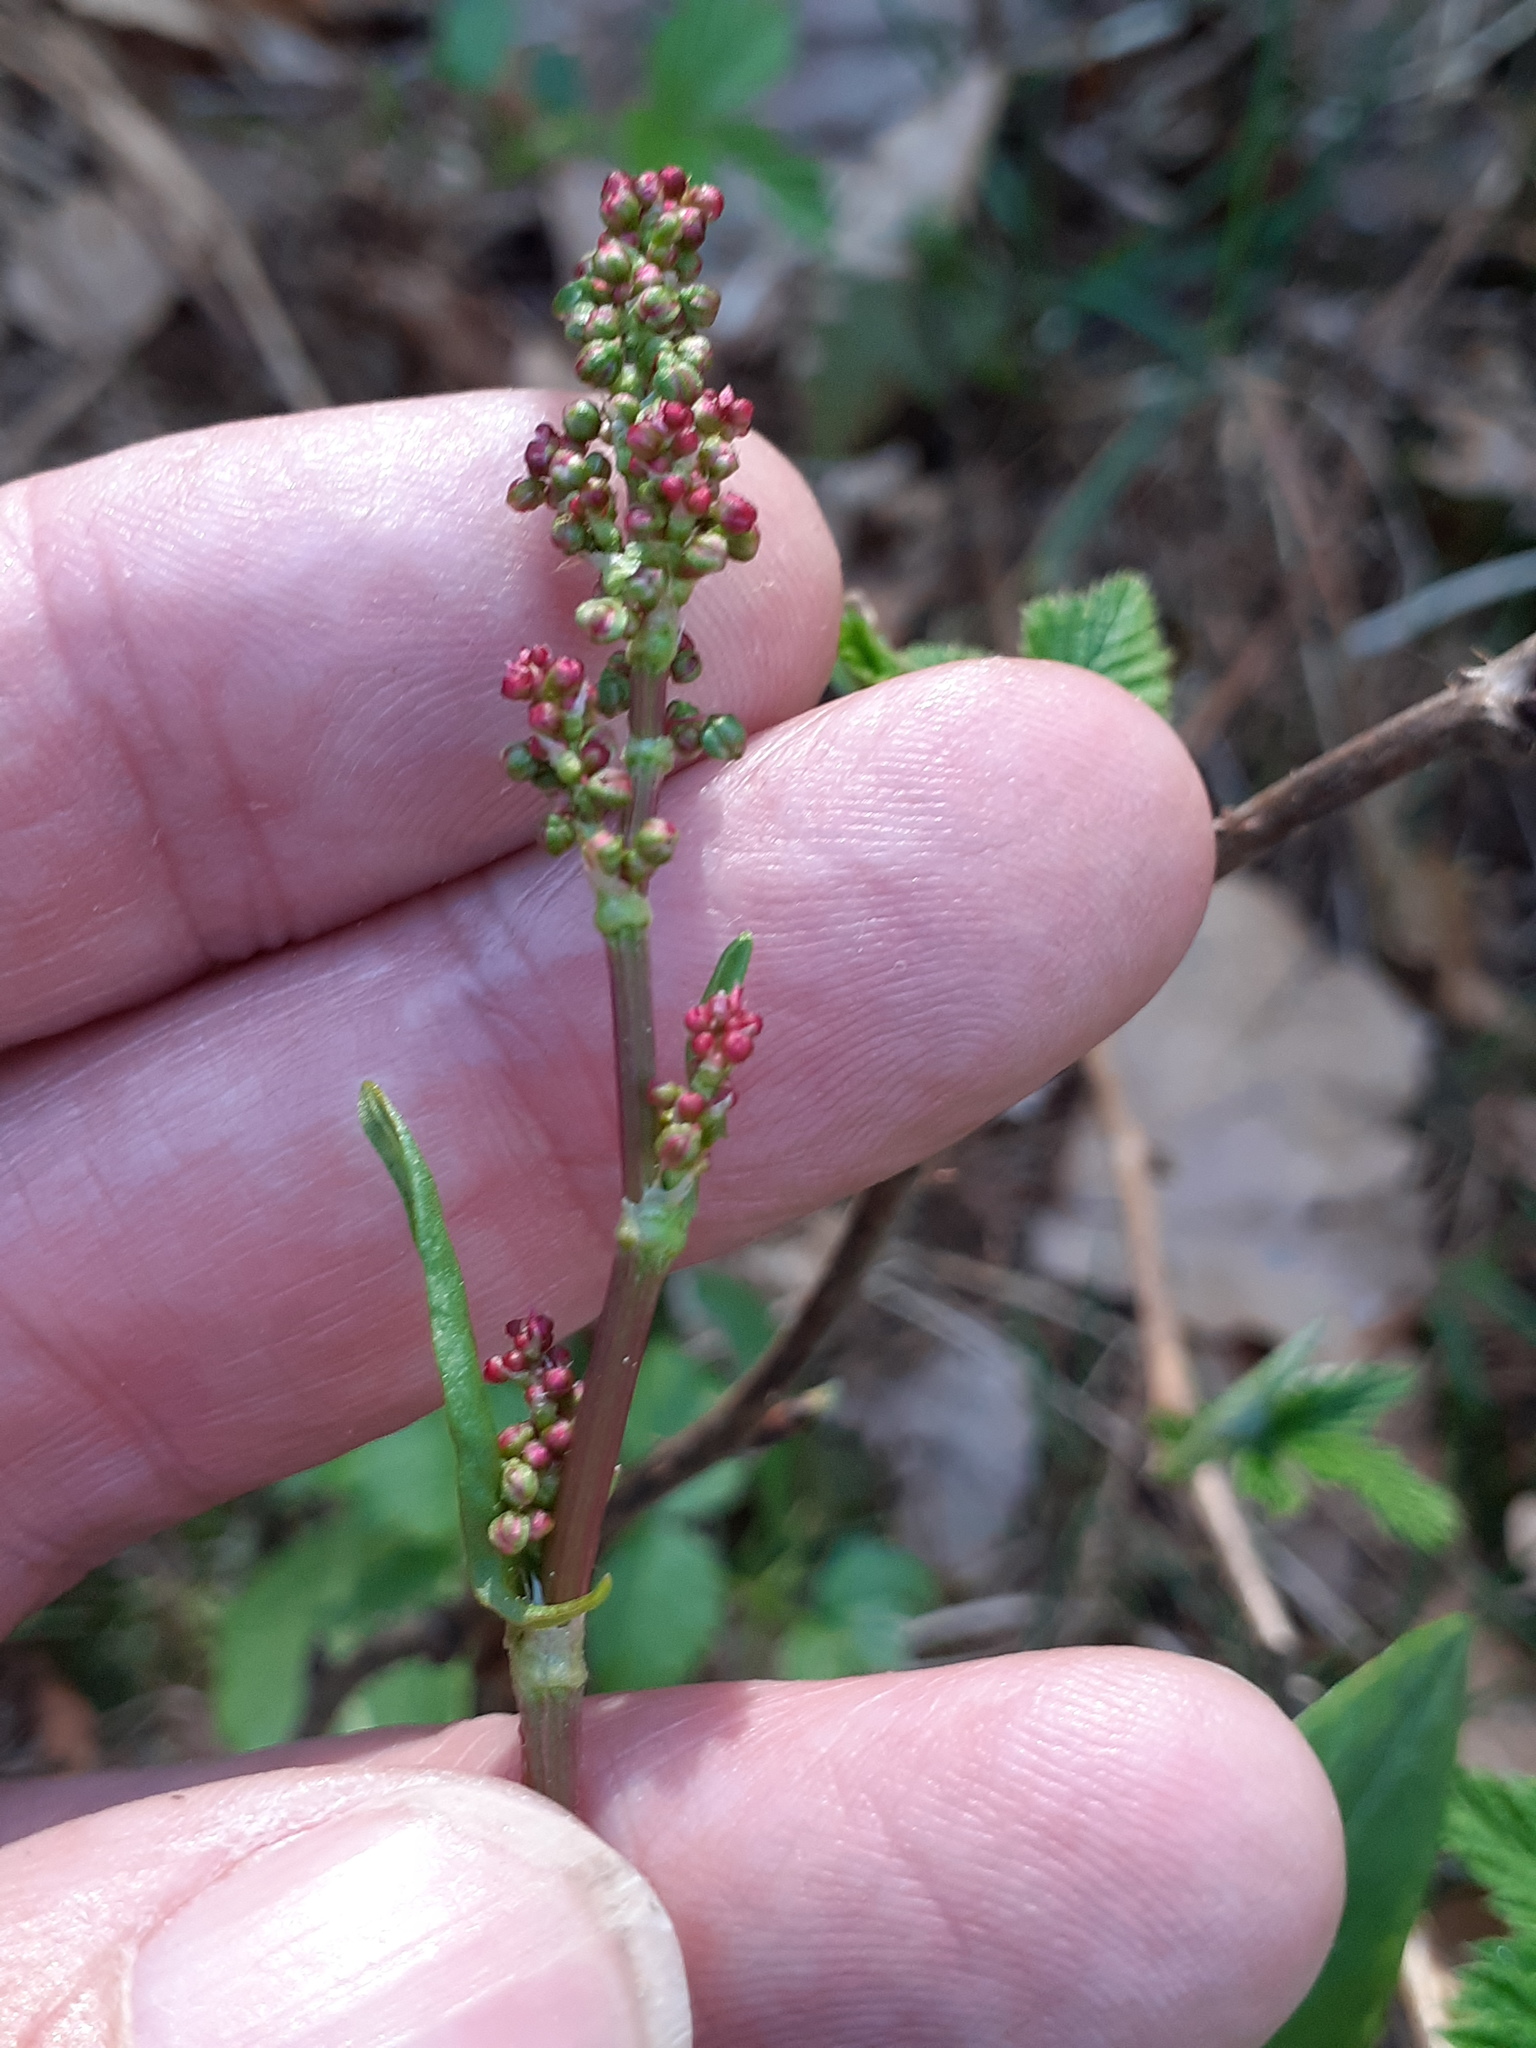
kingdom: Plantae
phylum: Tracheophyta
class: Magnoliopsida
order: Caryophyllales
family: Polygonaceae
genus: Rumex
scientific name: Rumex acetosa
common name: Garden sorrel
